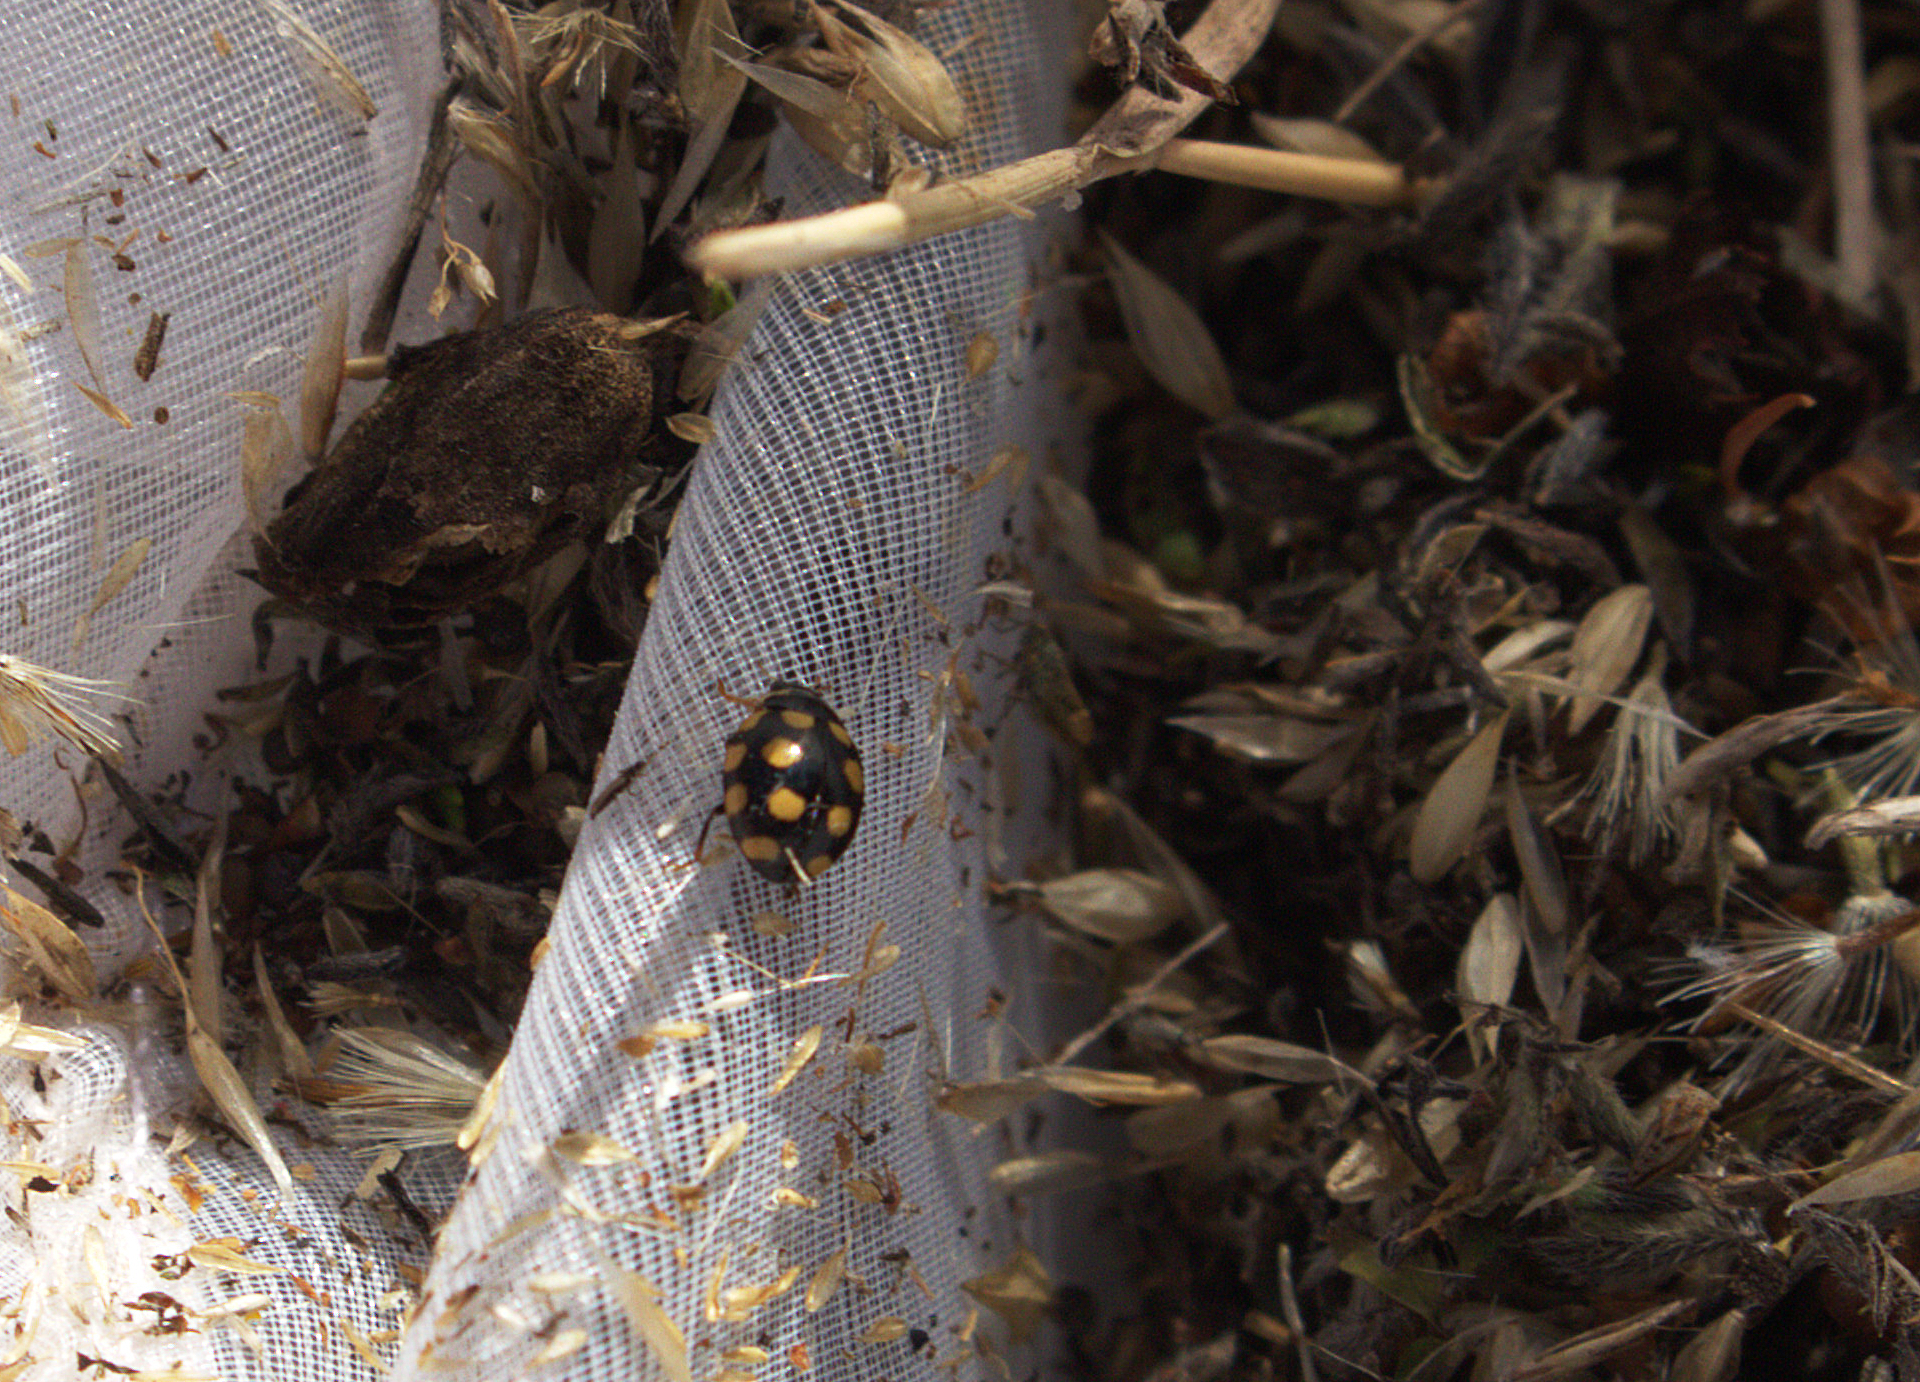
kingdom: Animalia
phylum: Arthropoda
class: Insecta
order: Coleoptera
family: Coccinellidae
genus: Coccinula
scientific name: Coccinula quatuordecimpustulata
